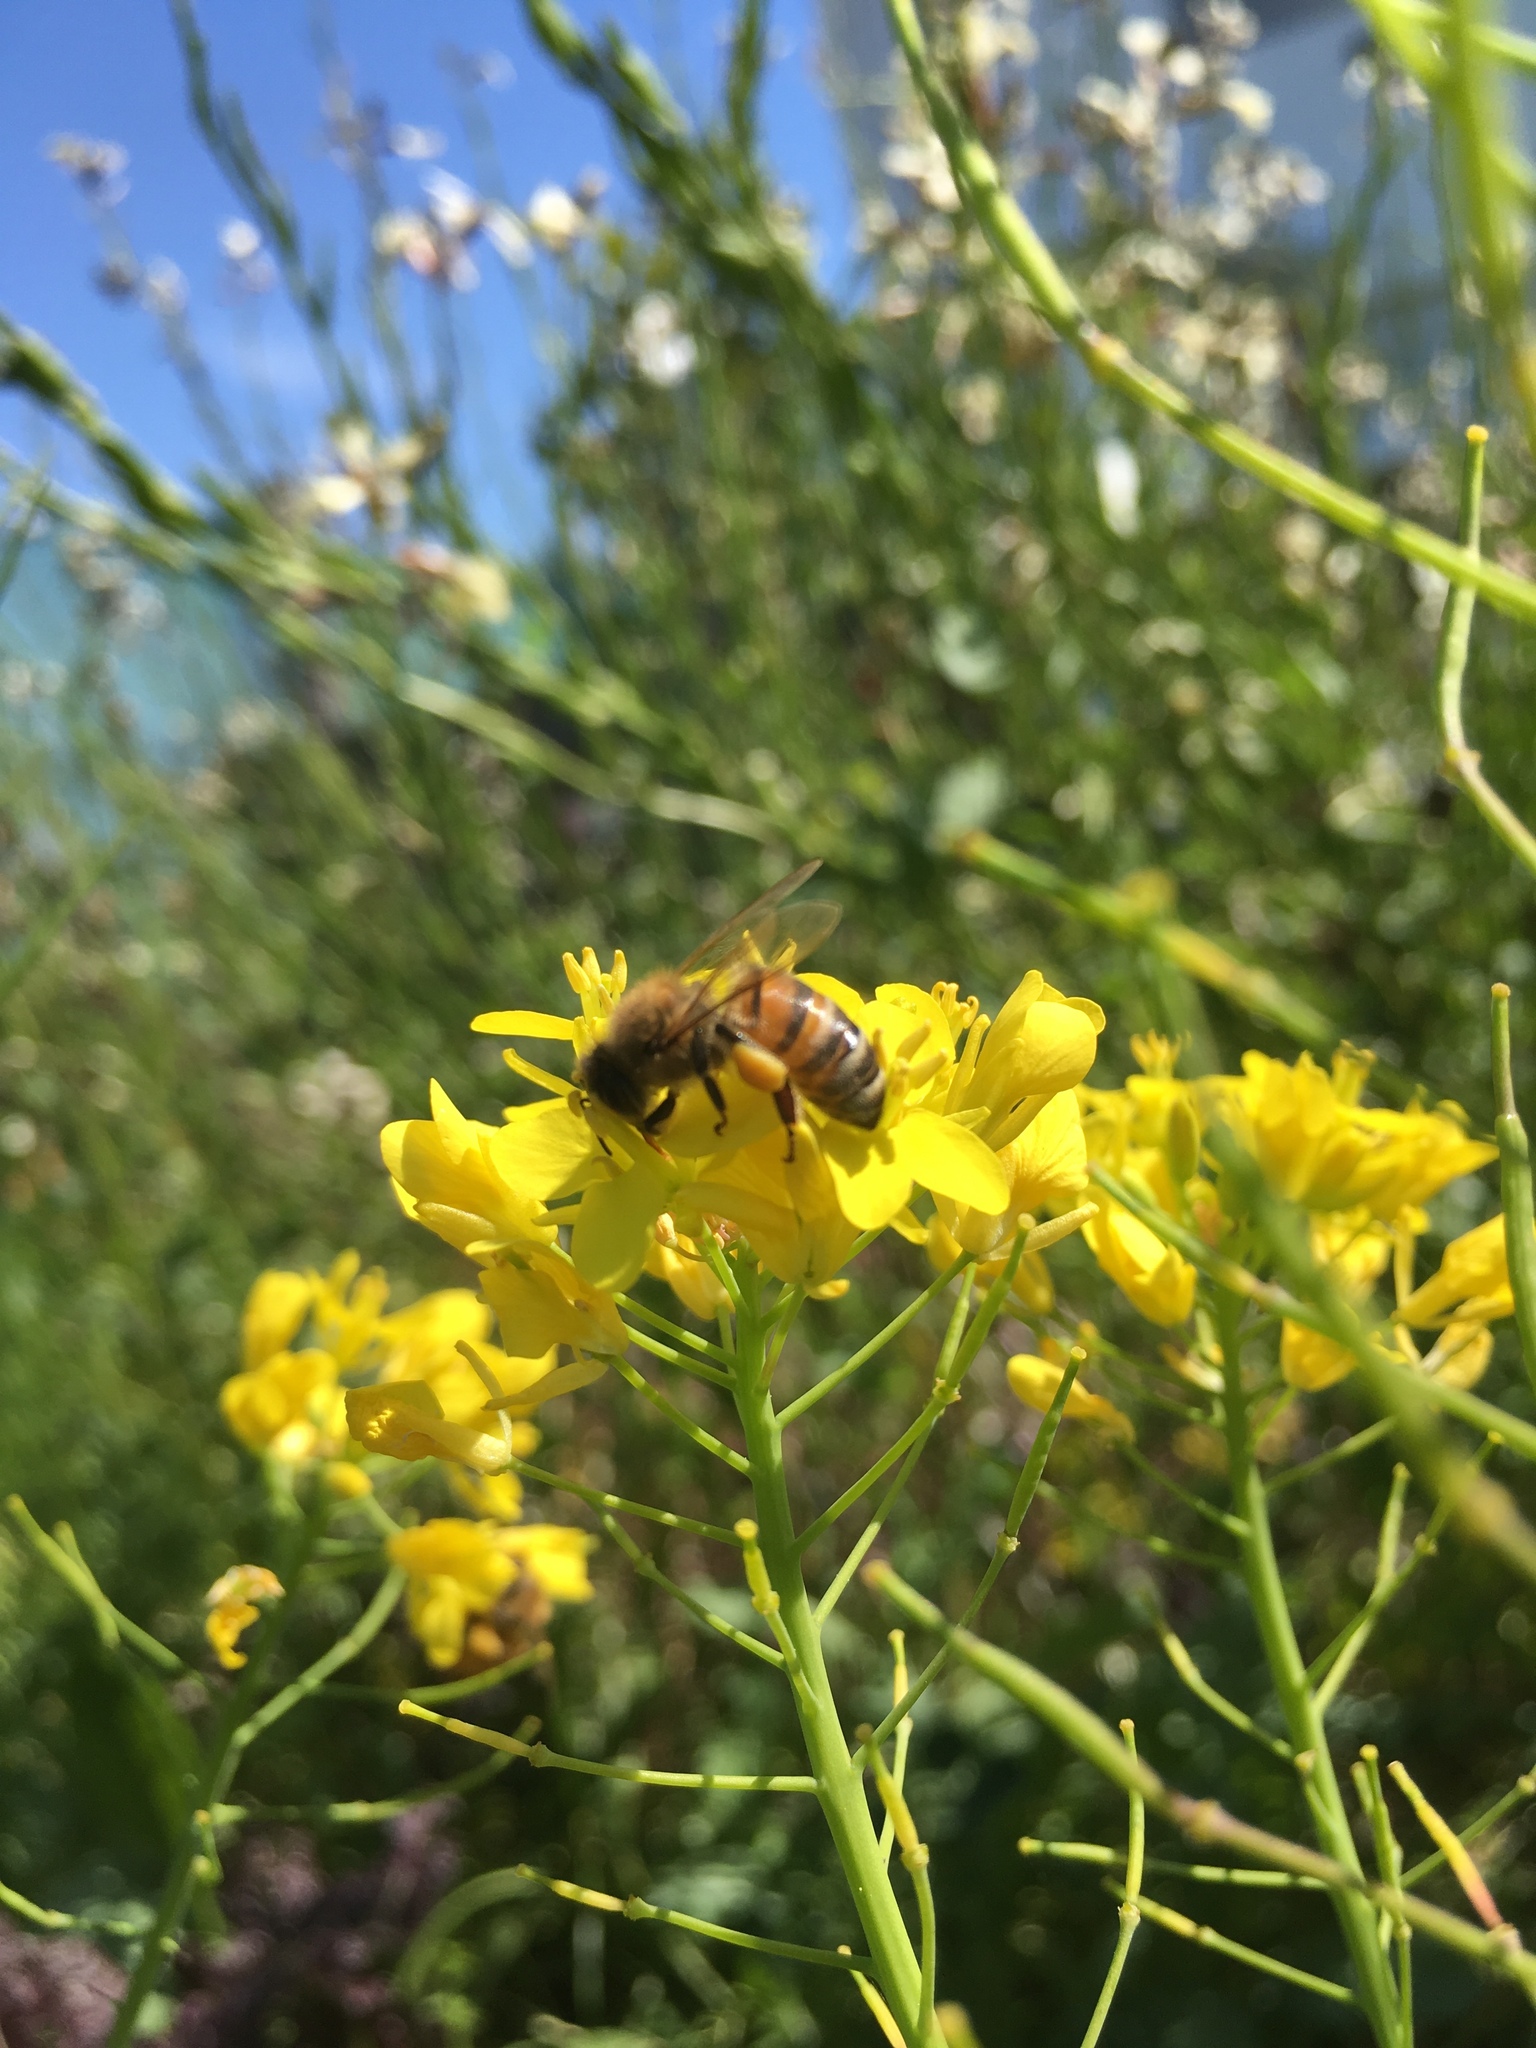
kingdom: Animalia
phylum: Arthropoda
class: Insecta
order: Hymenoptera
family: Apidae
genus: Apis
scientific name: Apis mellifera
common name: Honey bee
